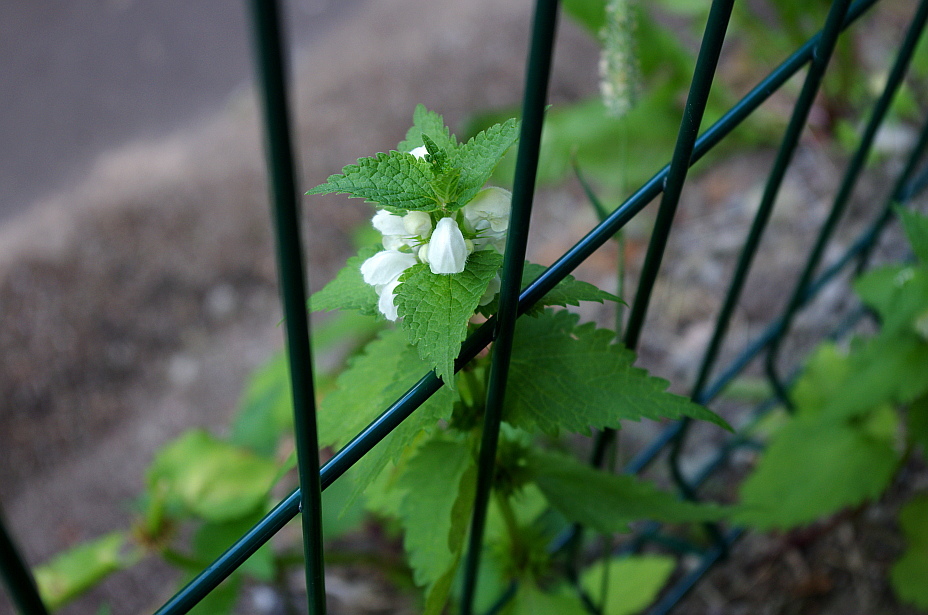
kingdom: Plantae
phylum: Tracheophyta
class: Magnoliopsida
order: Lamiales
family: Lamiaceae
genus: Lamium
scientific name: Lamium album
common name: White dead-nettle
